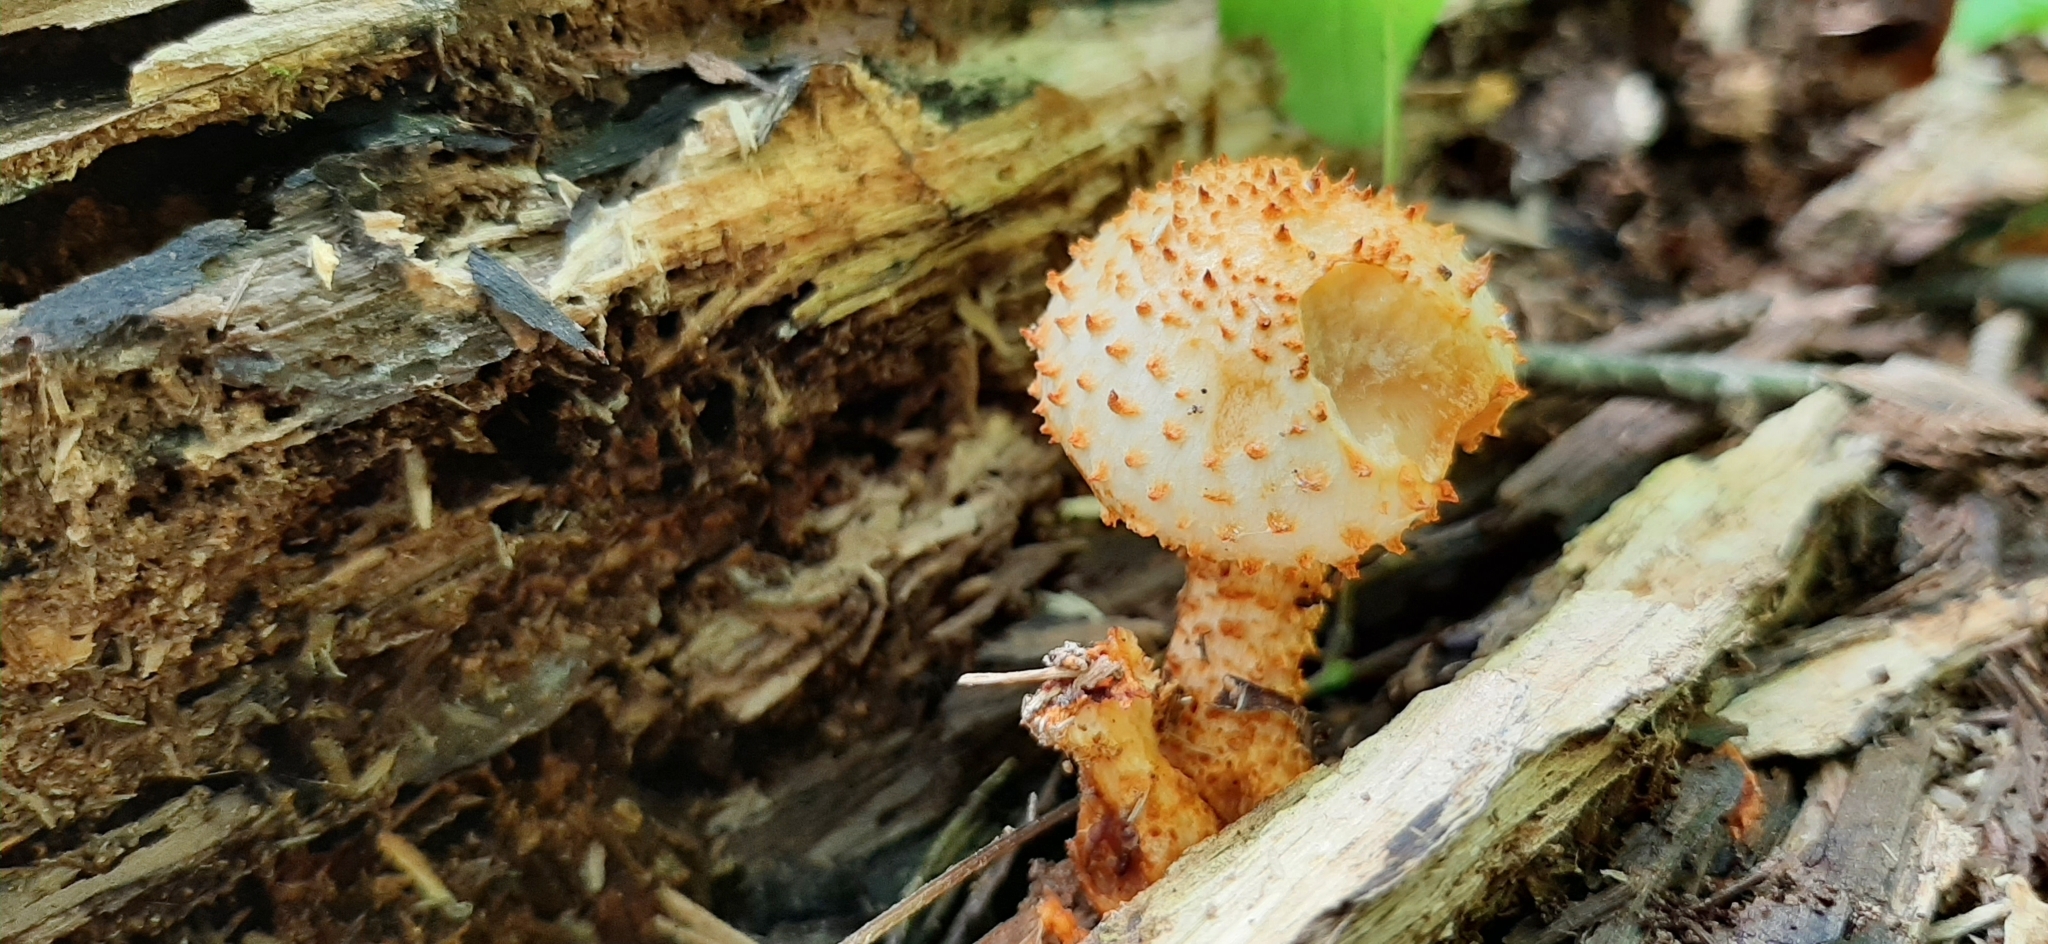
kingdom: Fungi
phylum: Basidiomycota
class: Agaricomycetes
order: Agaricales
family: Strophariaceae
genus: Pholiota
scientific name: Pholiota squarrosa
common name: Shaggy pholiota
